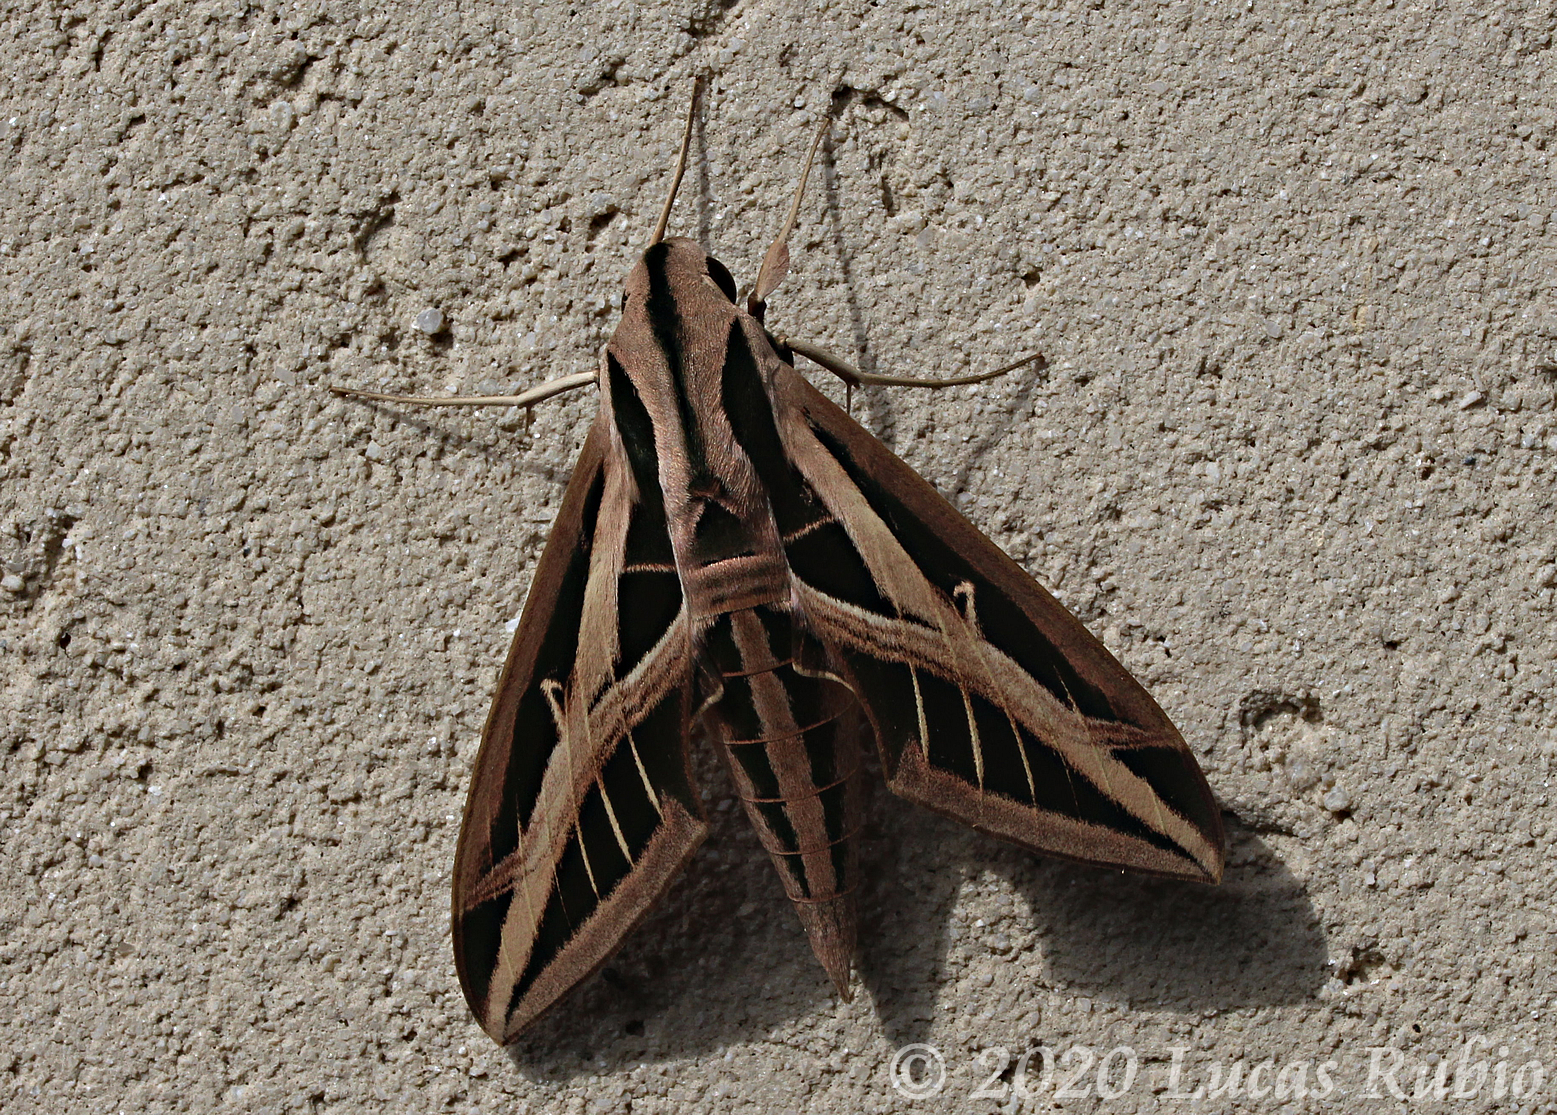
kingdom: Animalia
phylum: Arthropoda
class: Insecta
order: Lepidoptera
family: Sphingidae
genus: Eumorpha
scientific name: Eumorpha fasciatus
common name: Banded sphinx
